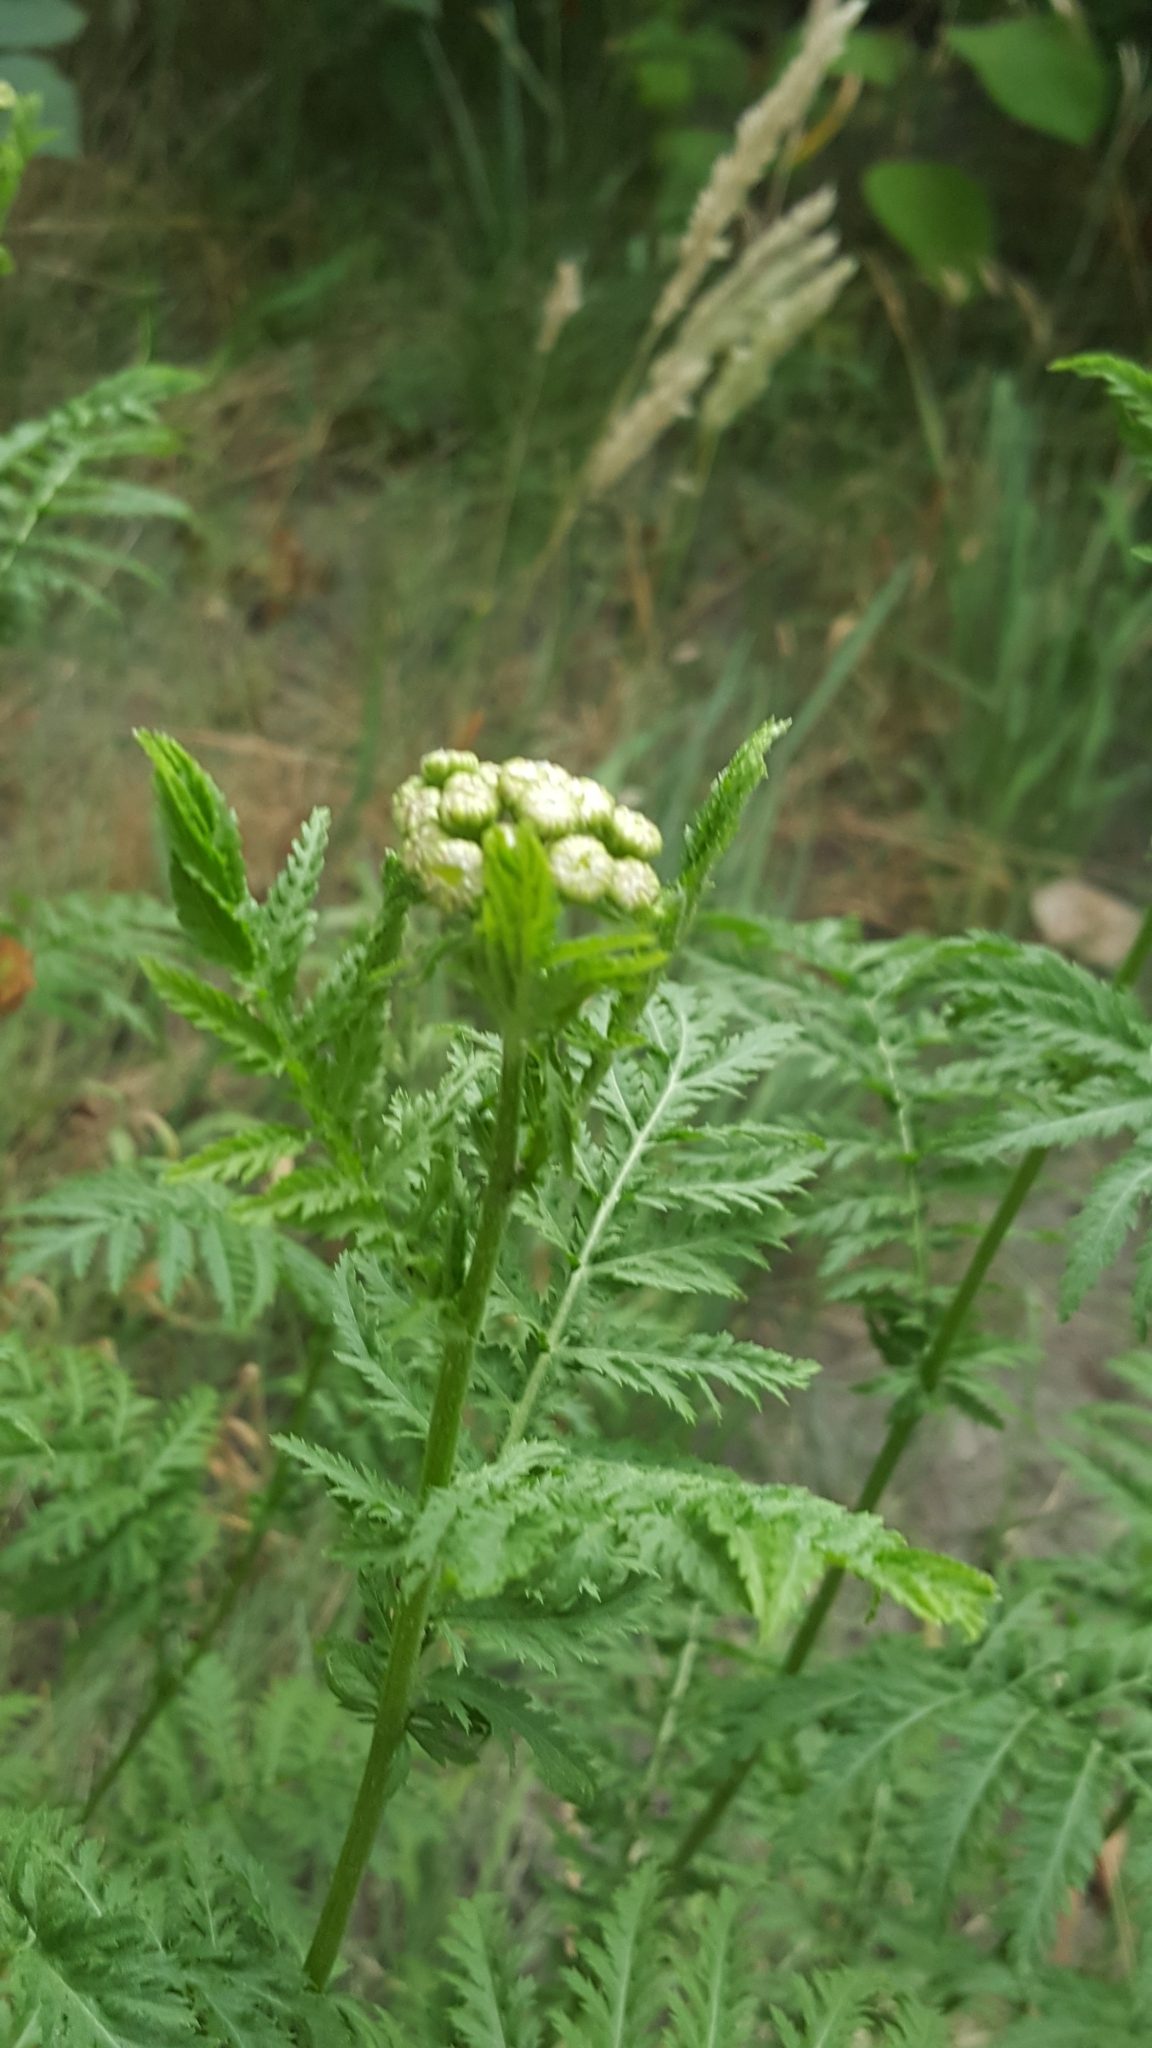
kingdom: Plantae
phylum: Tracheophyta
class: Magnoliopsida
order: Asterales
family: Asteraceae
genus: Tanacetum
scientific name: Tanacetum vulgare
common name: Common tansy
